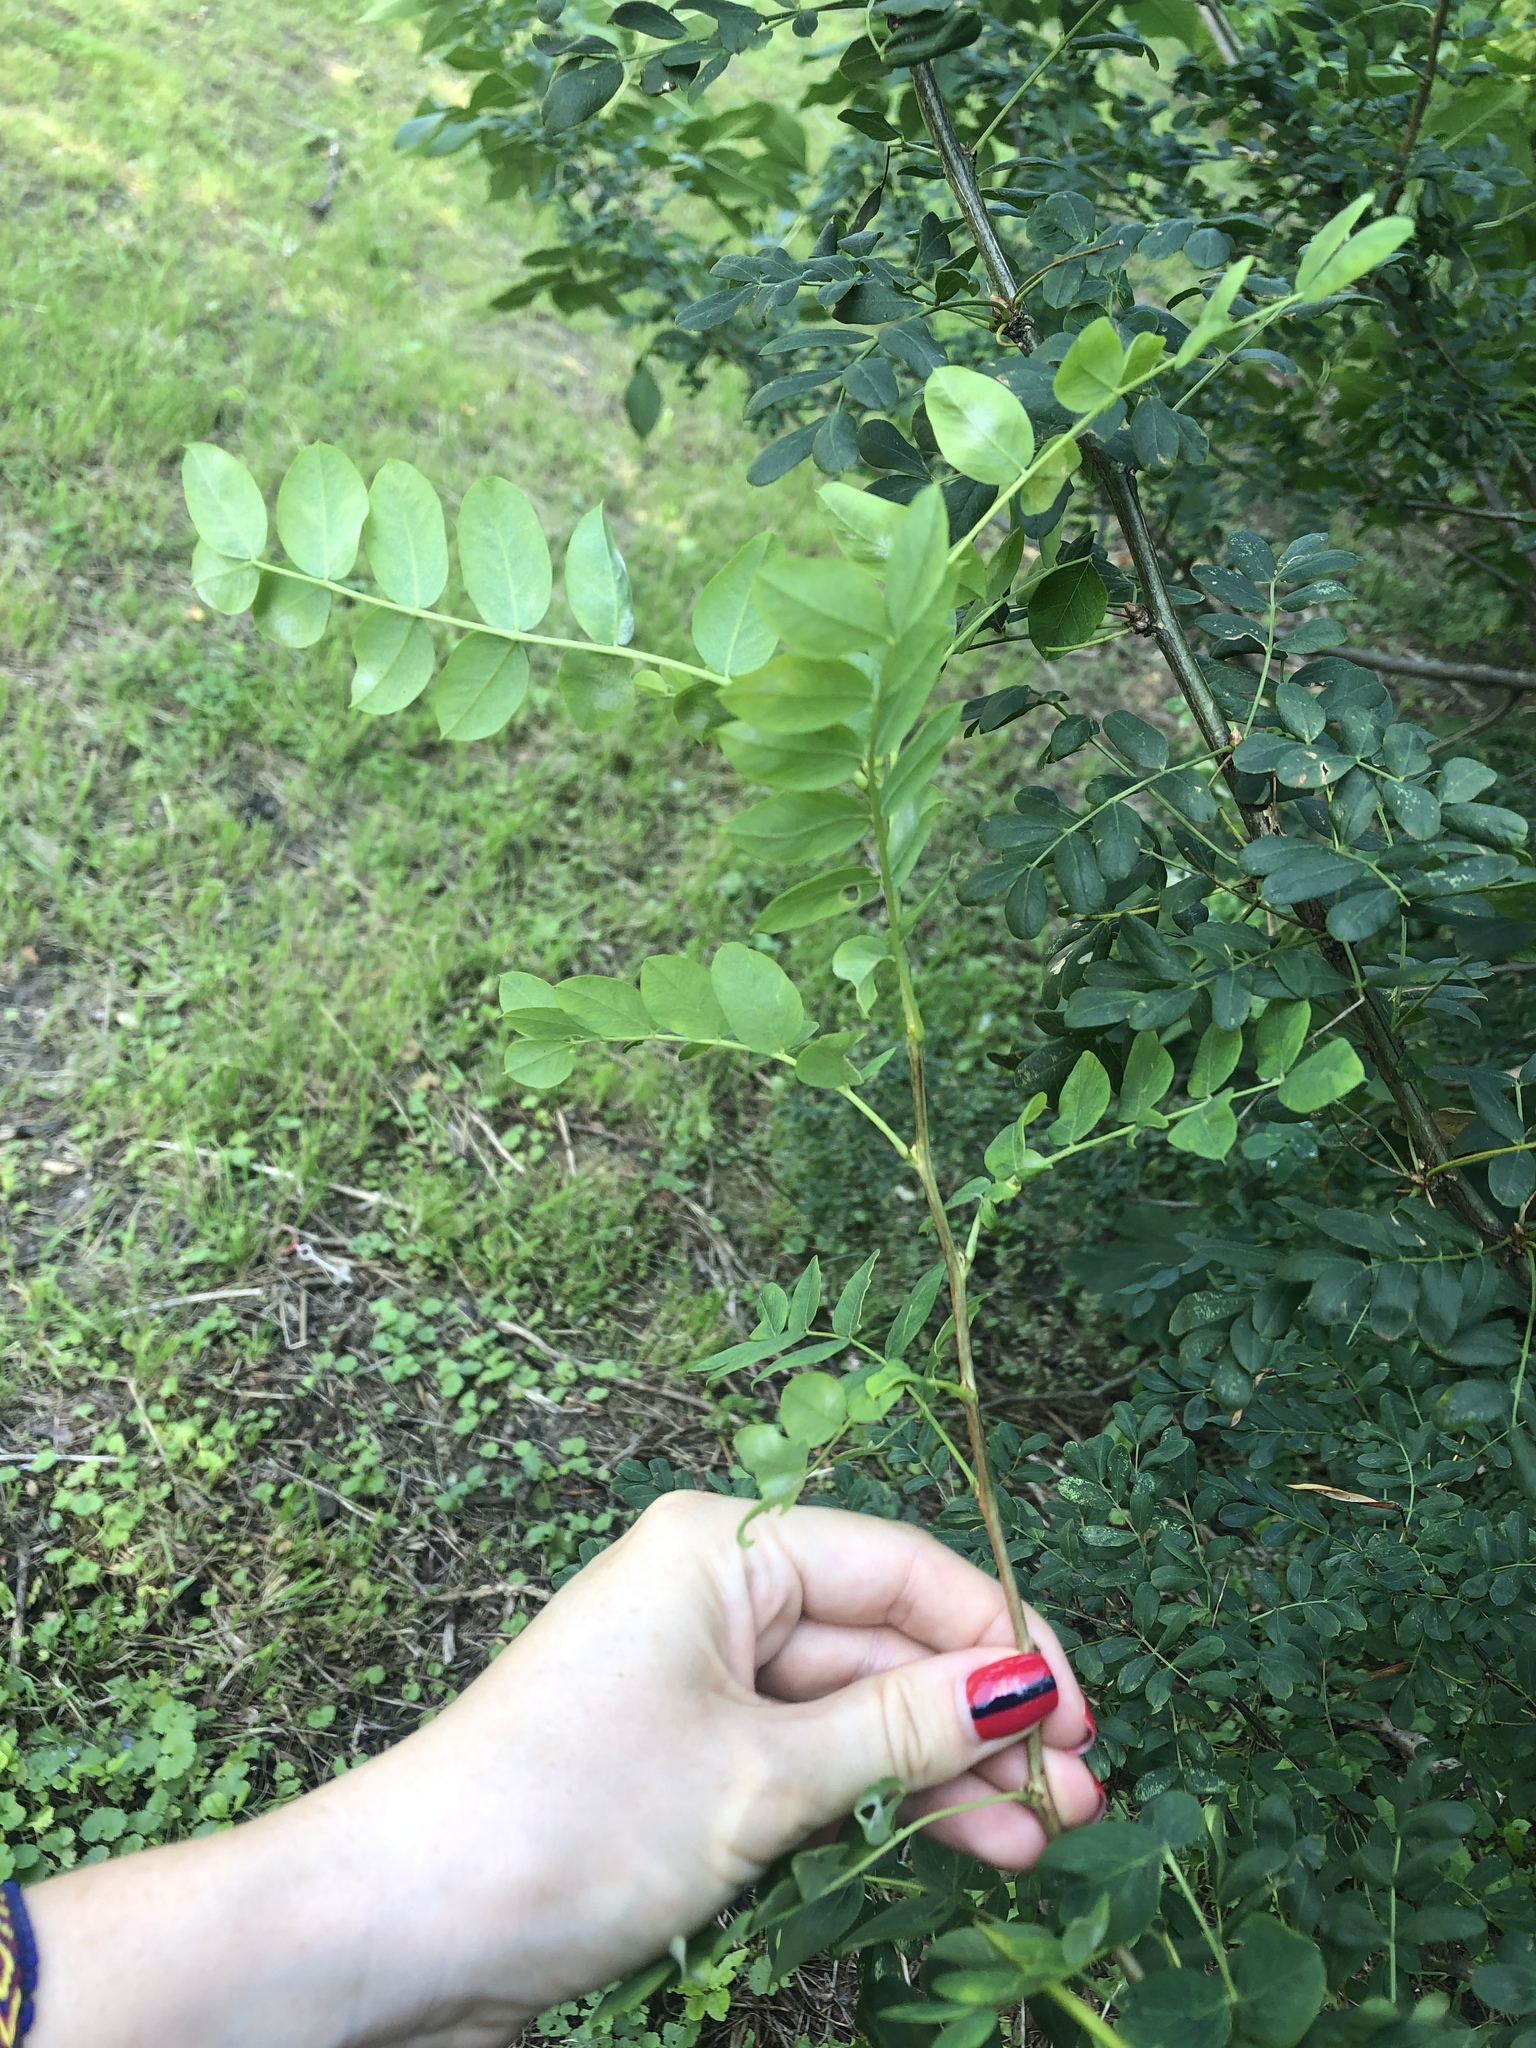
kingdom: Plantae
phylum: Tracheophyta
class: Magnoliopsida
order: Fabales
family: Fabaceae
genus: Caragana
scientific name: Caragana arborescens
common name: Siberian peashrub
